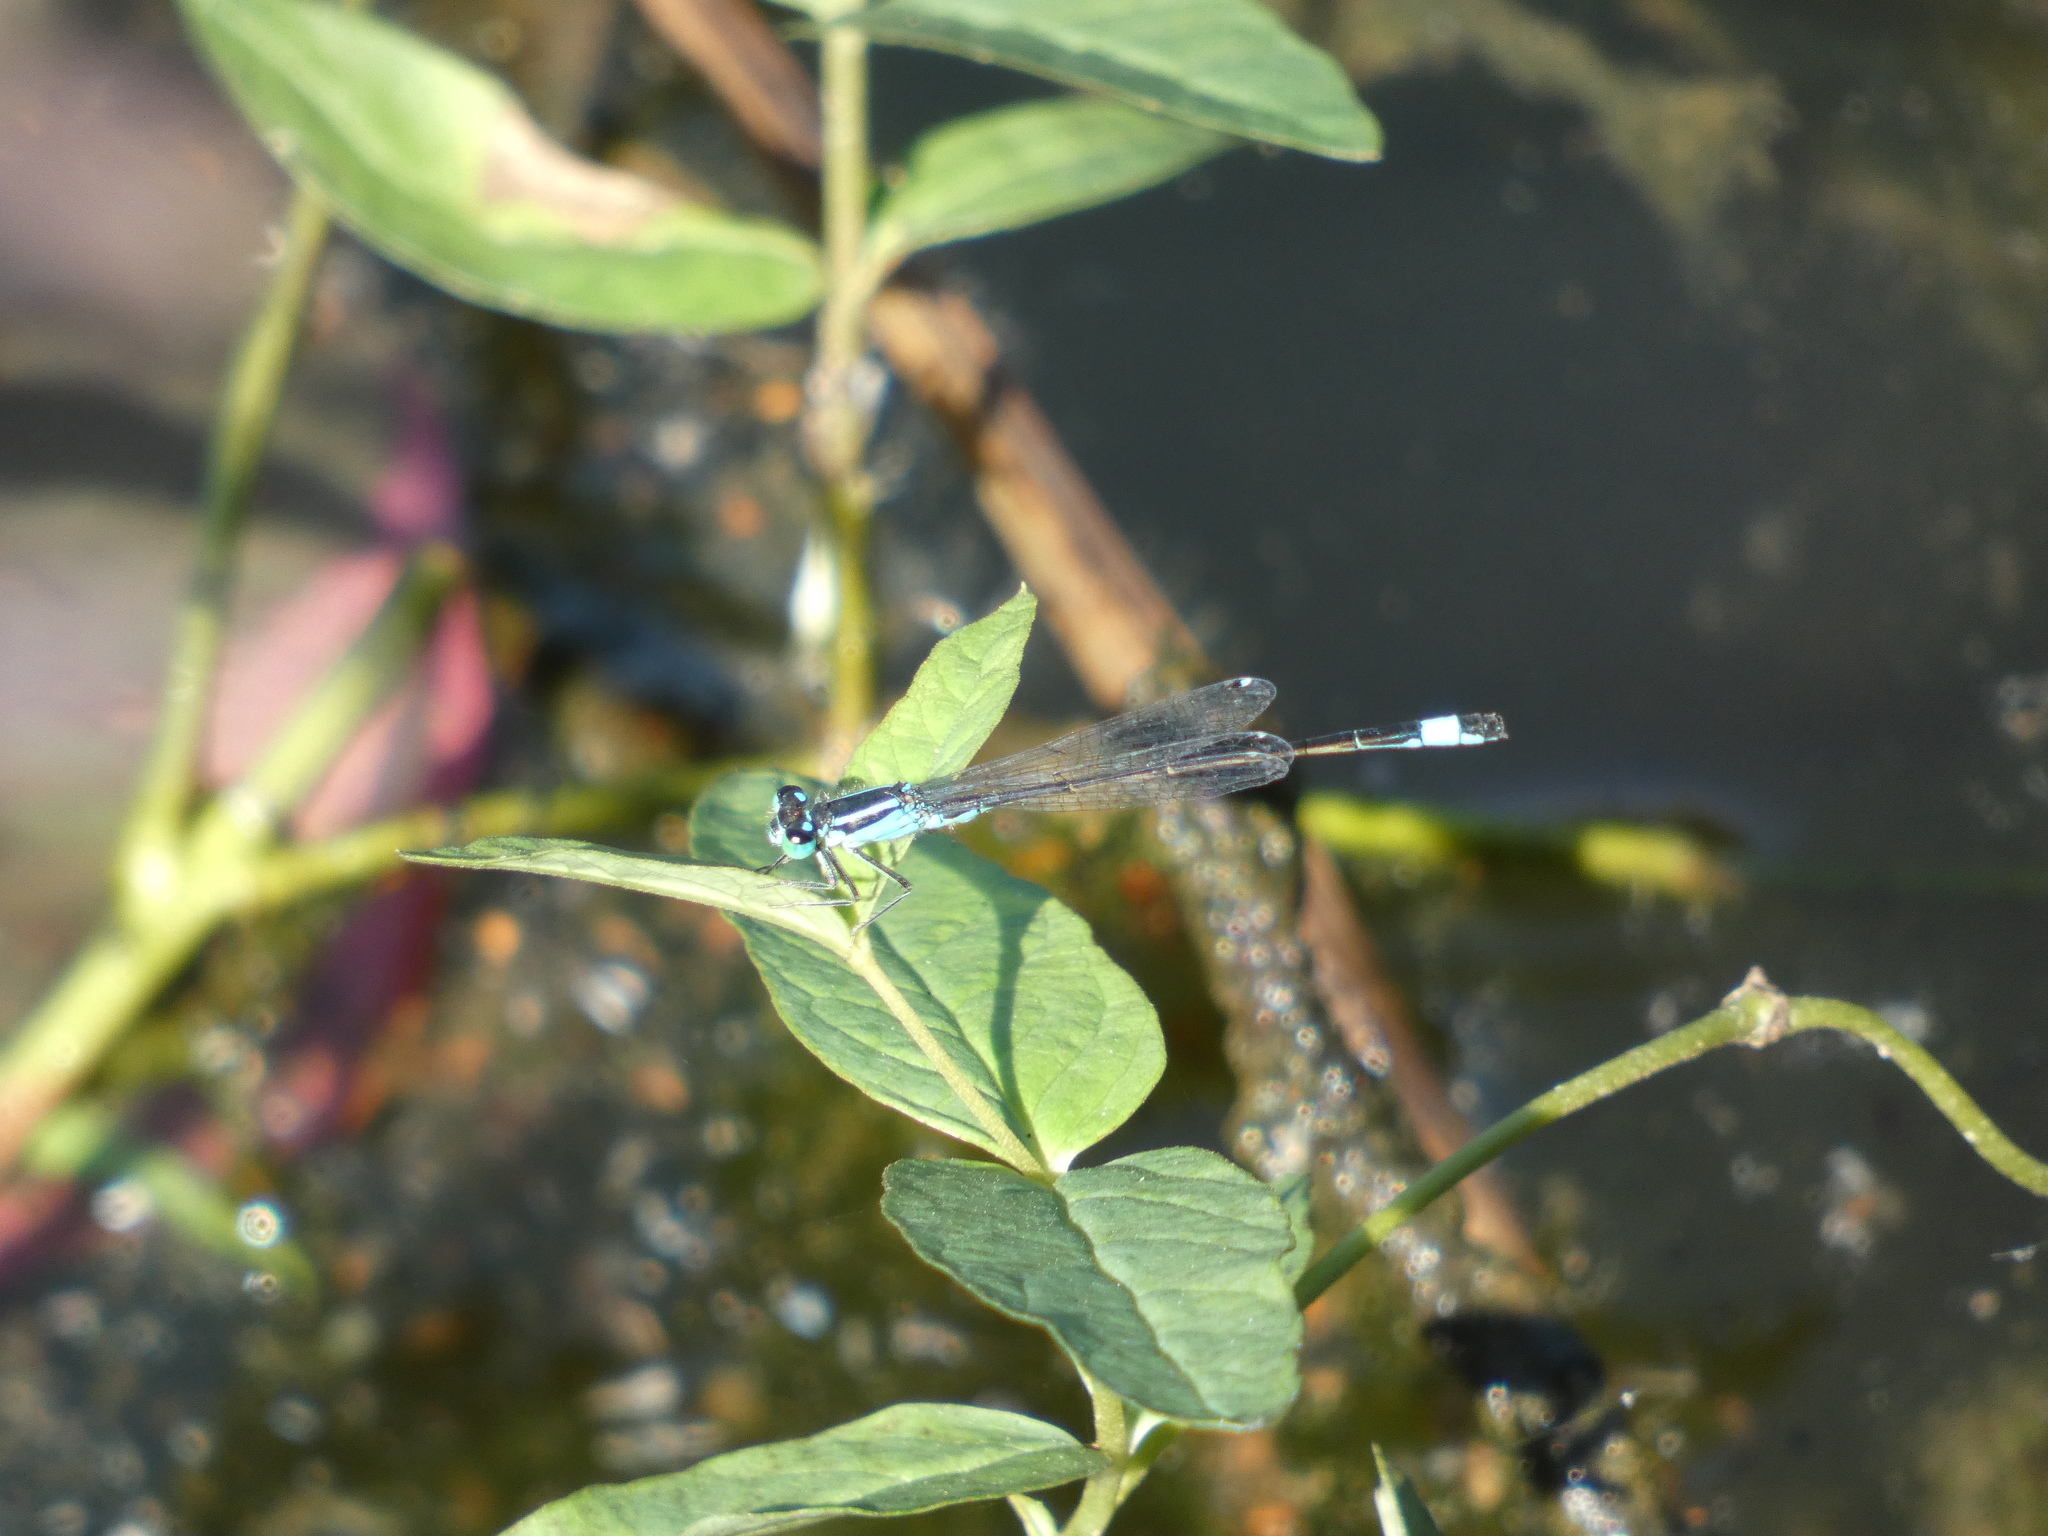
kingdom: Animalia
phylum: Arthropoda
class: Insecta
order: Odonata
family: Coenagrionidae
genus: Ischnura
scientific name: Ischnura elegans
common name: Blue-tailed damselfly
